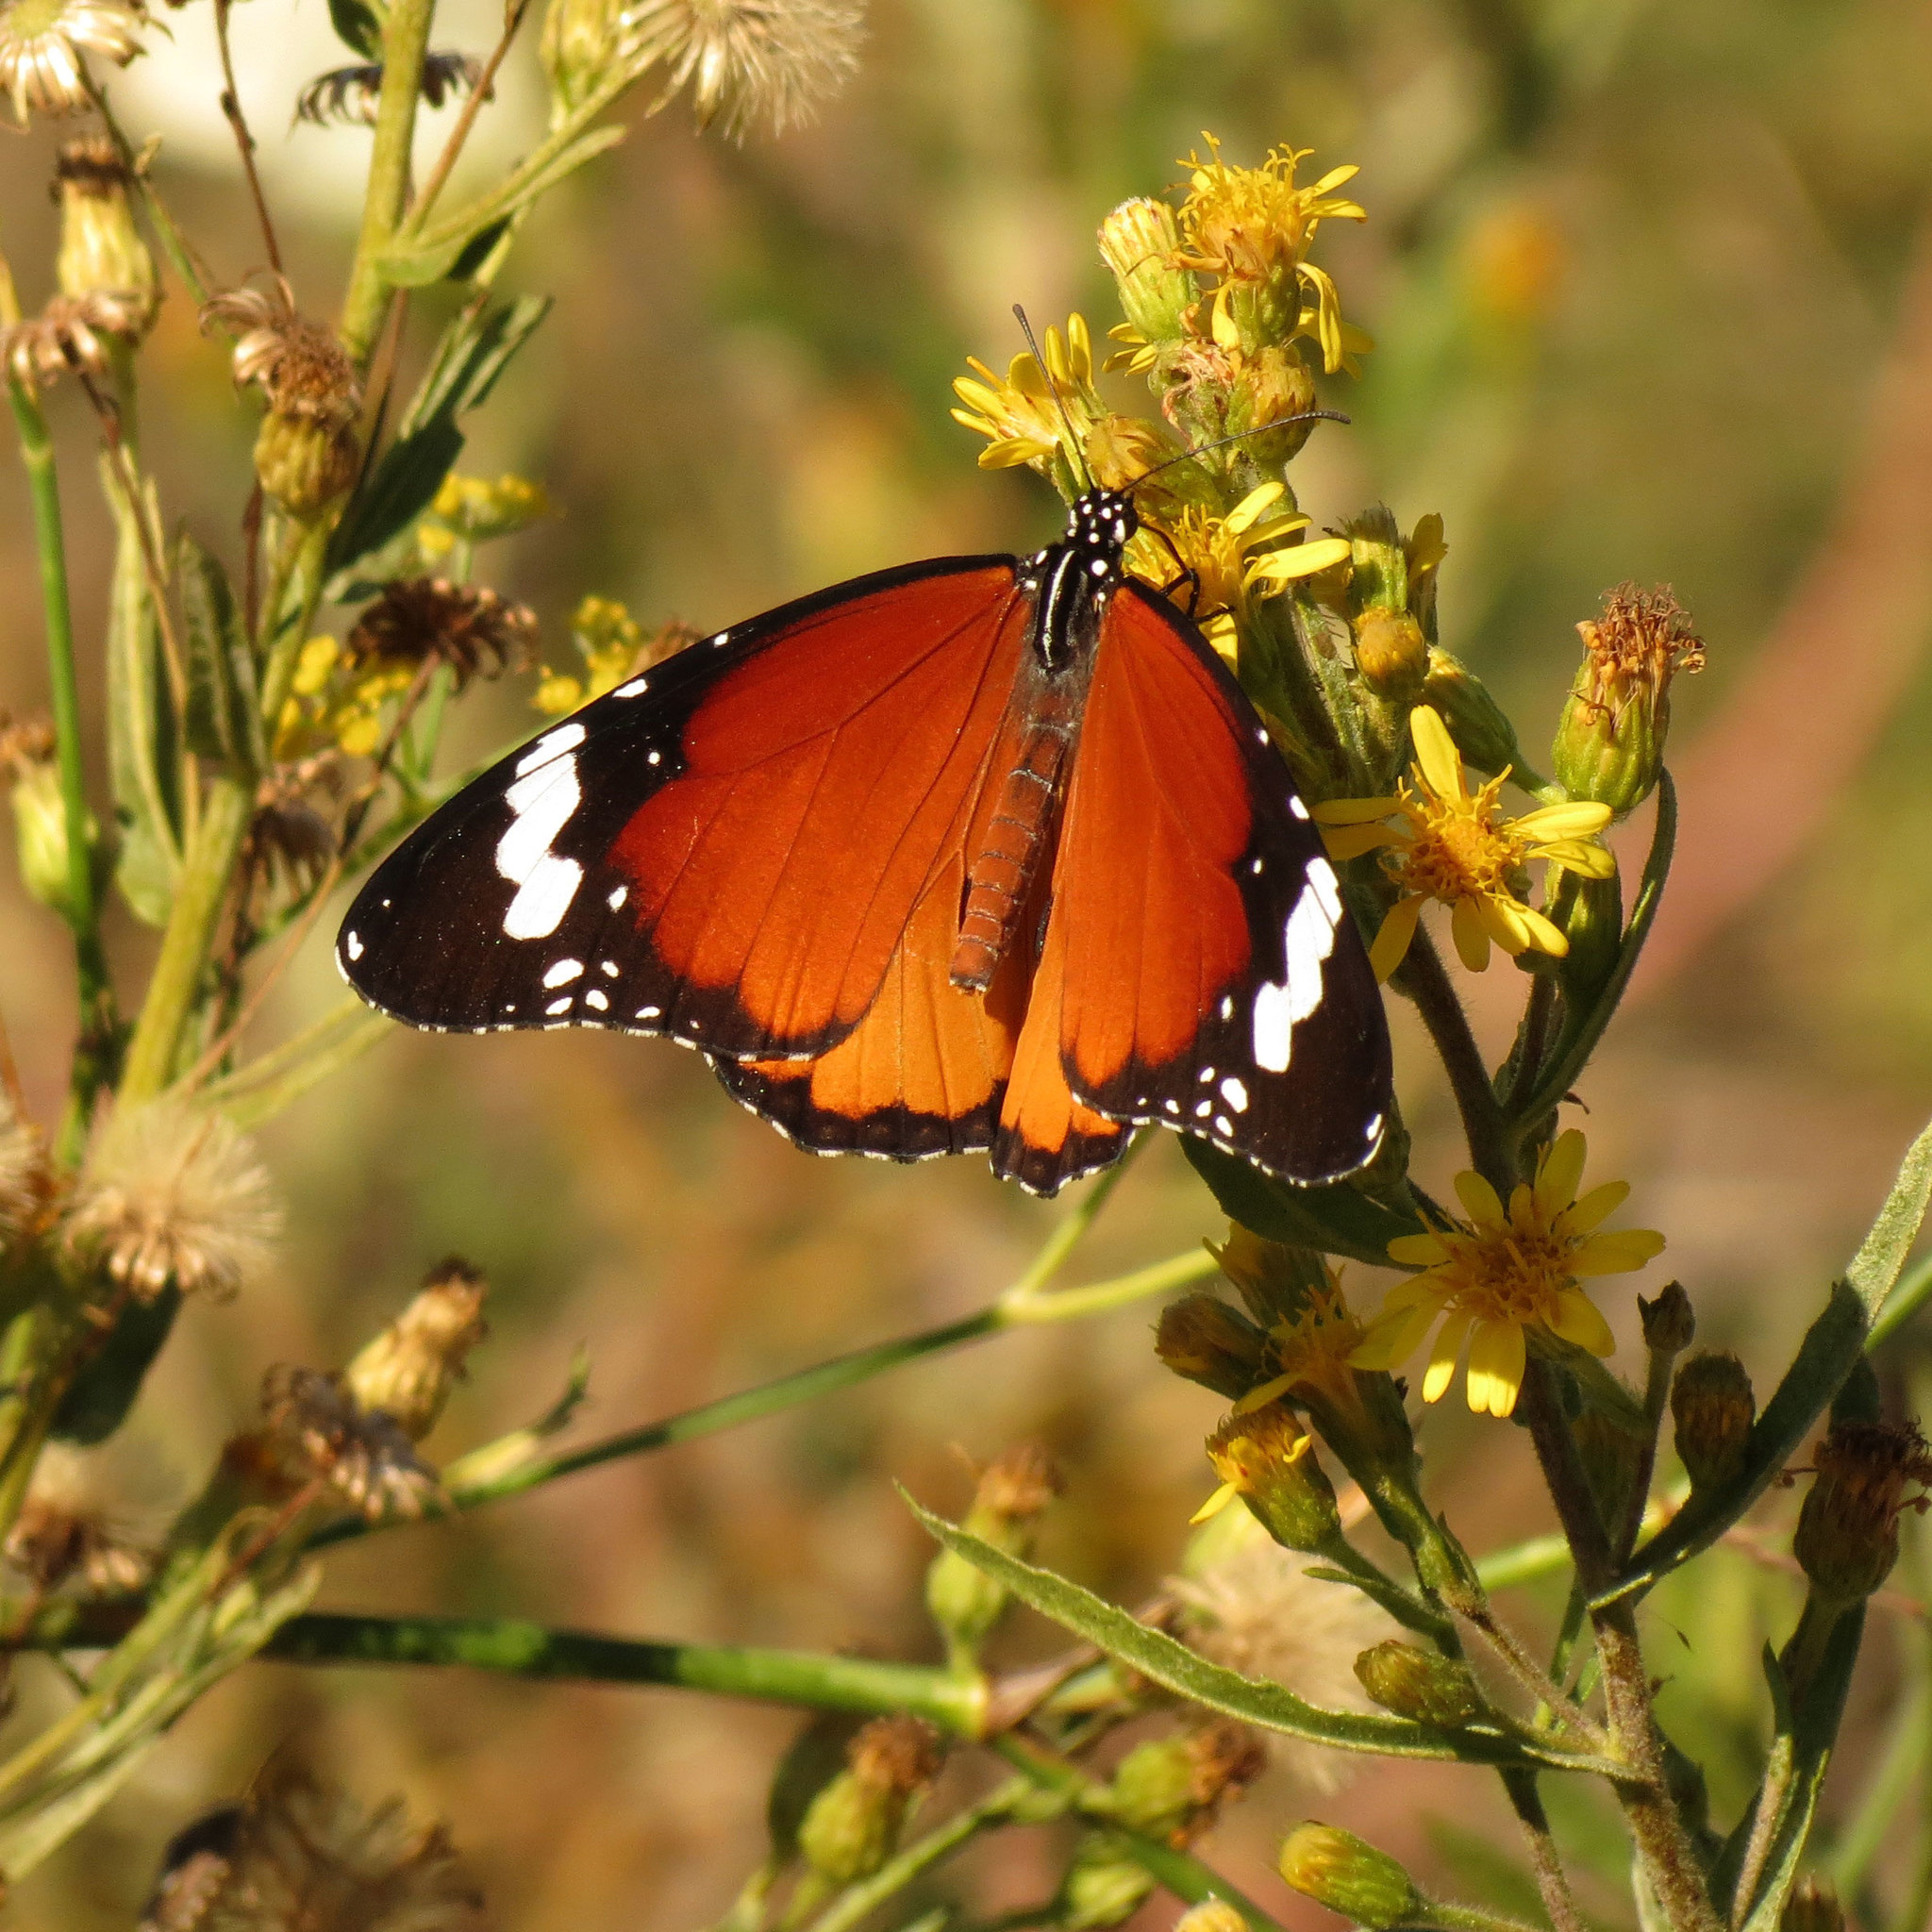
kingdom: Animalia
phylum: Arthropoda
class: Insecta
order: Lepidoptera
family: Nymphalidae
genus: Danaus
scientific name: Danaus chrysippus
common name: Plain tiger
